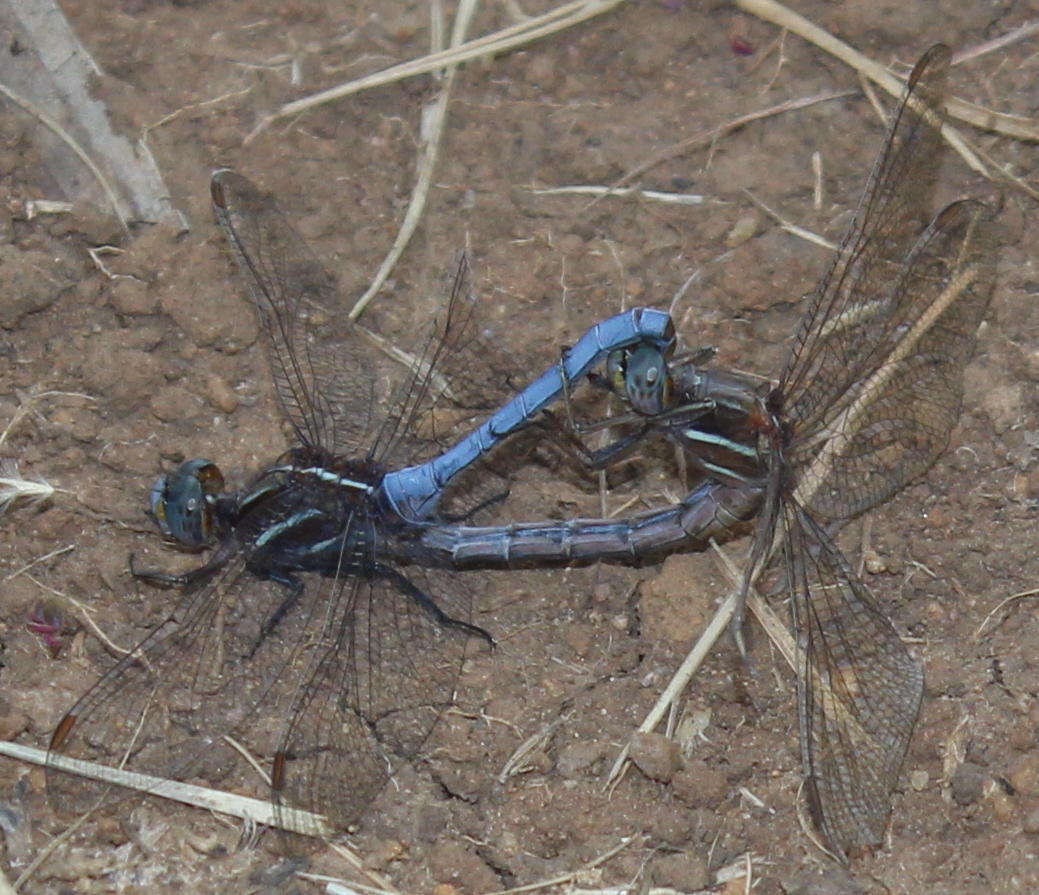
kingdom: Animalia
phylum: Arthropoda
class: Insecta
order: Odonata
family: Libellulidae
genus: Orthetrum
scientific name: Orthetrum caffrum
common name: Two-striped skimmer
